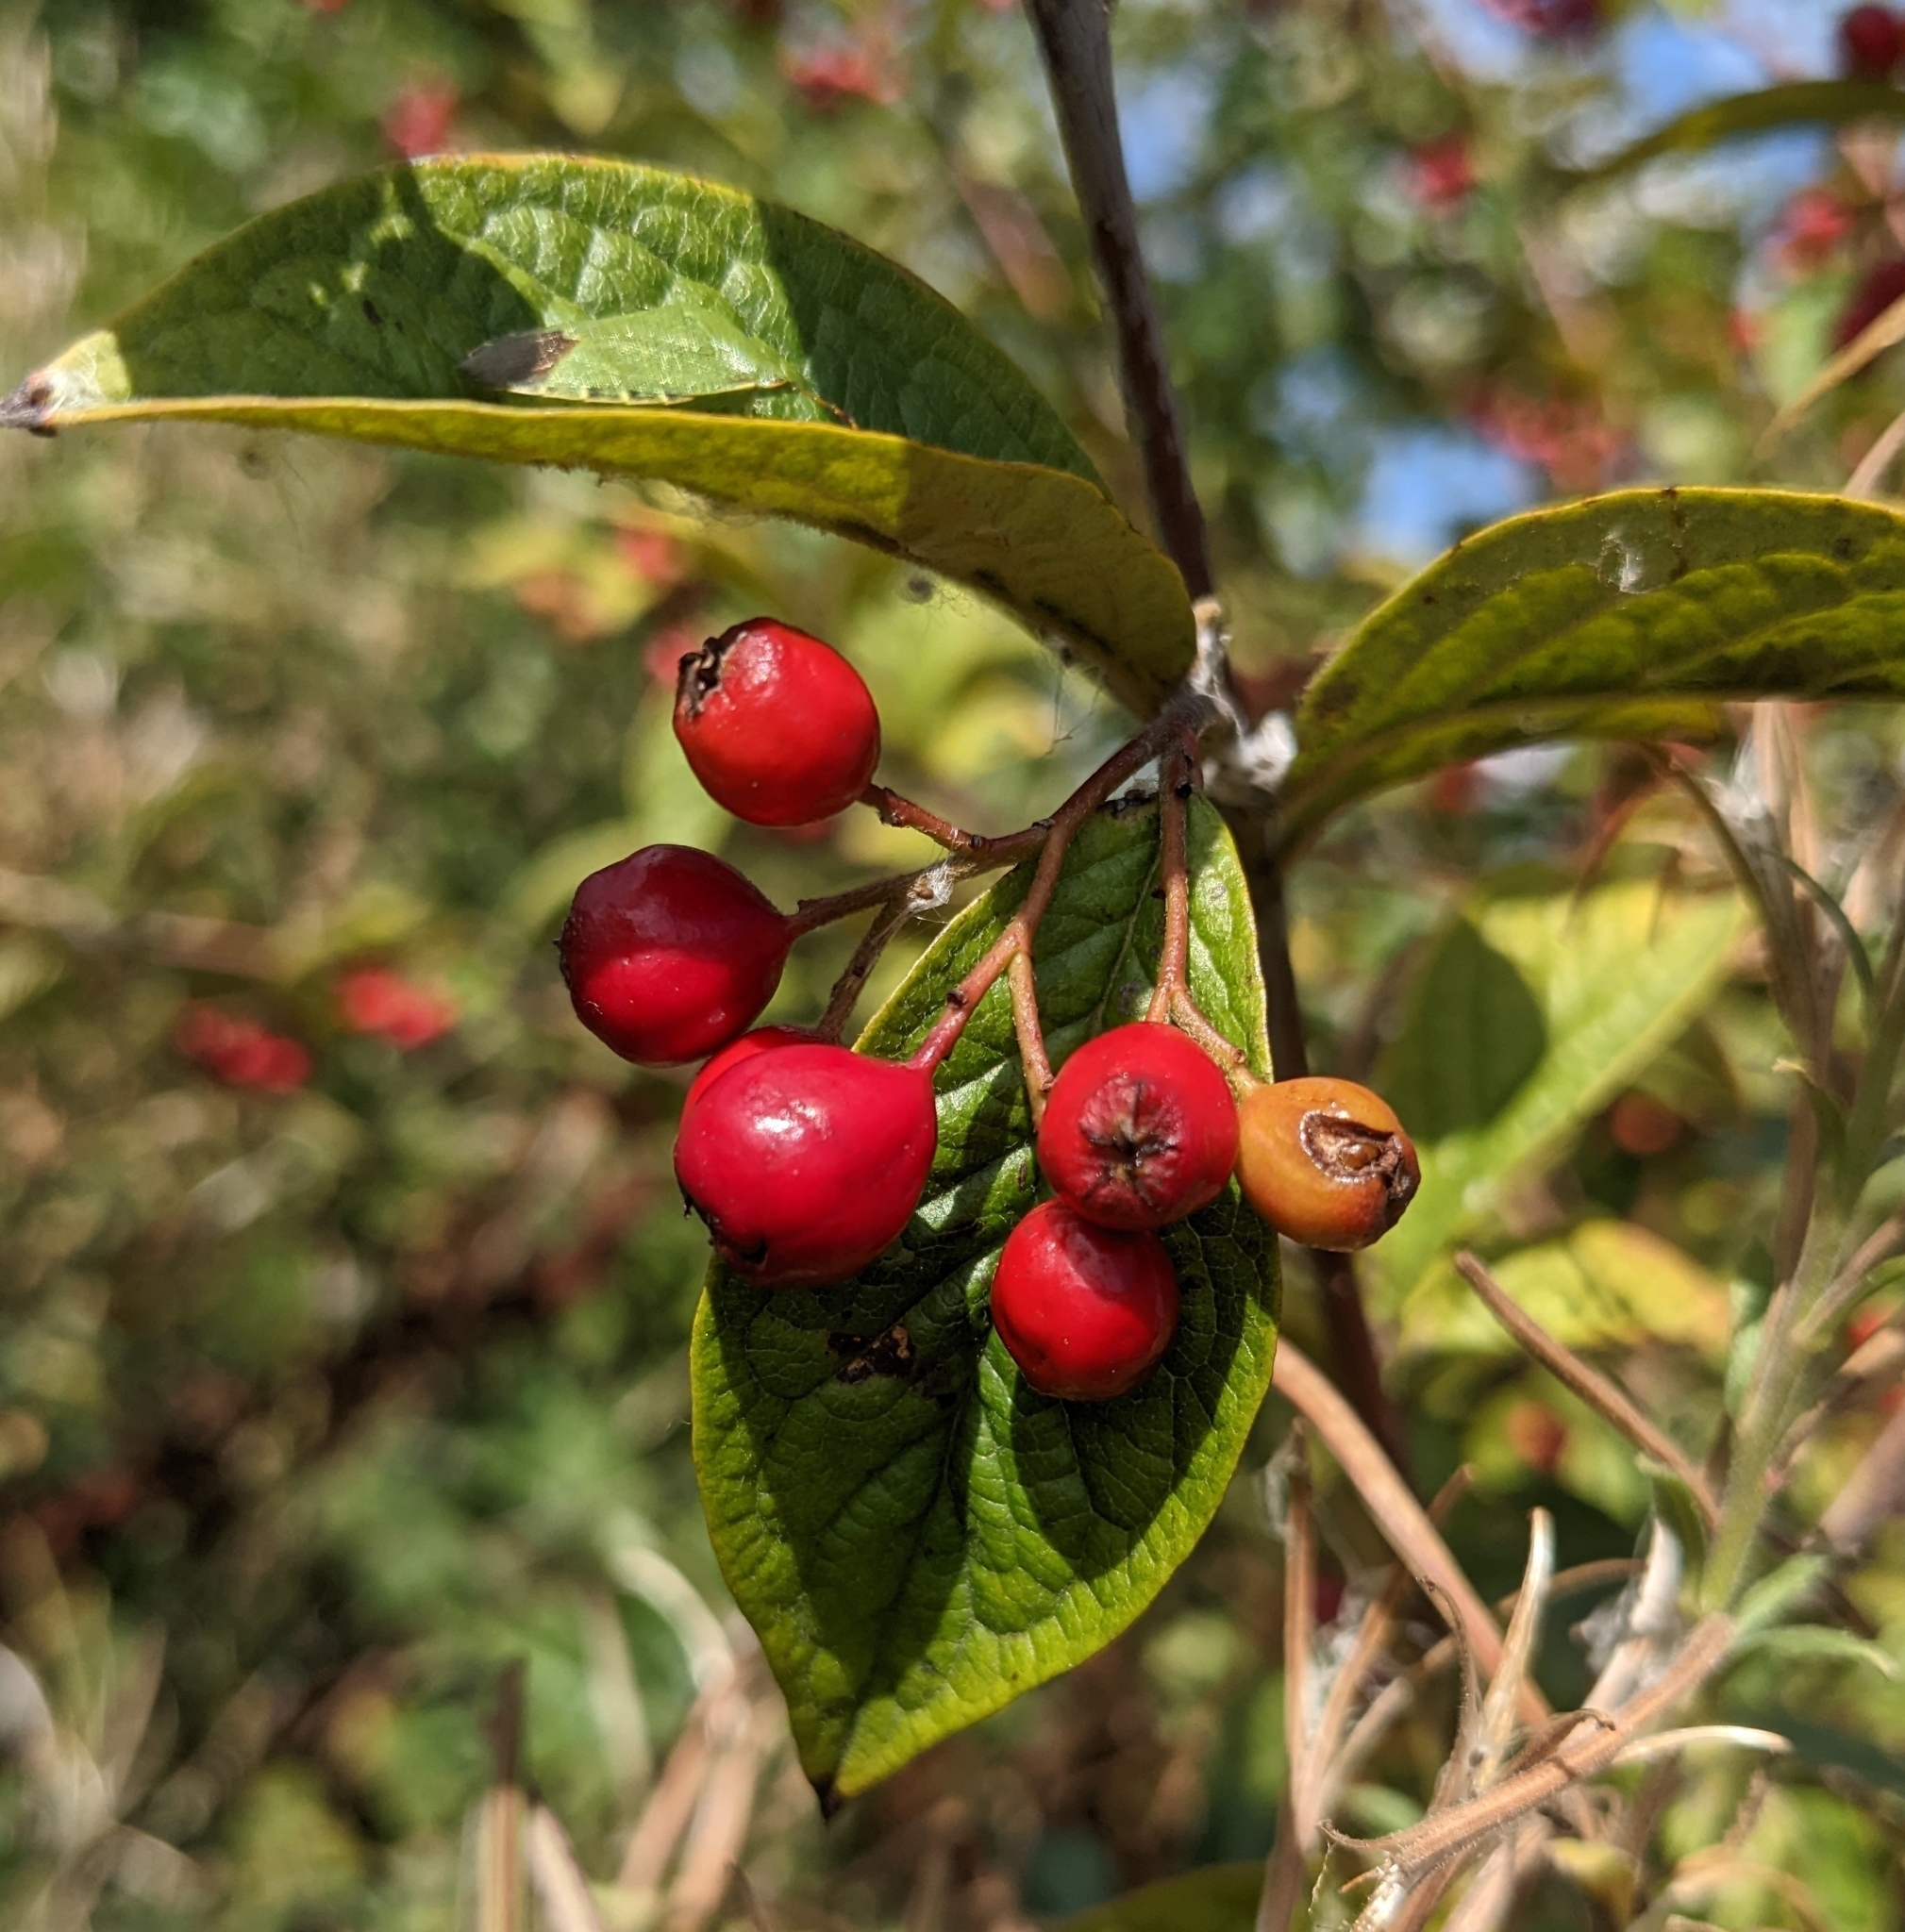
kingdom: Plantae
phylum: Tracheophyta
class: Magnoliopsida
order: Rosales
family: Rosaceae
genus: Cotoneaster
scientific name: Cotoneaster bullatus
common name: Hollyberry cotoneaster
